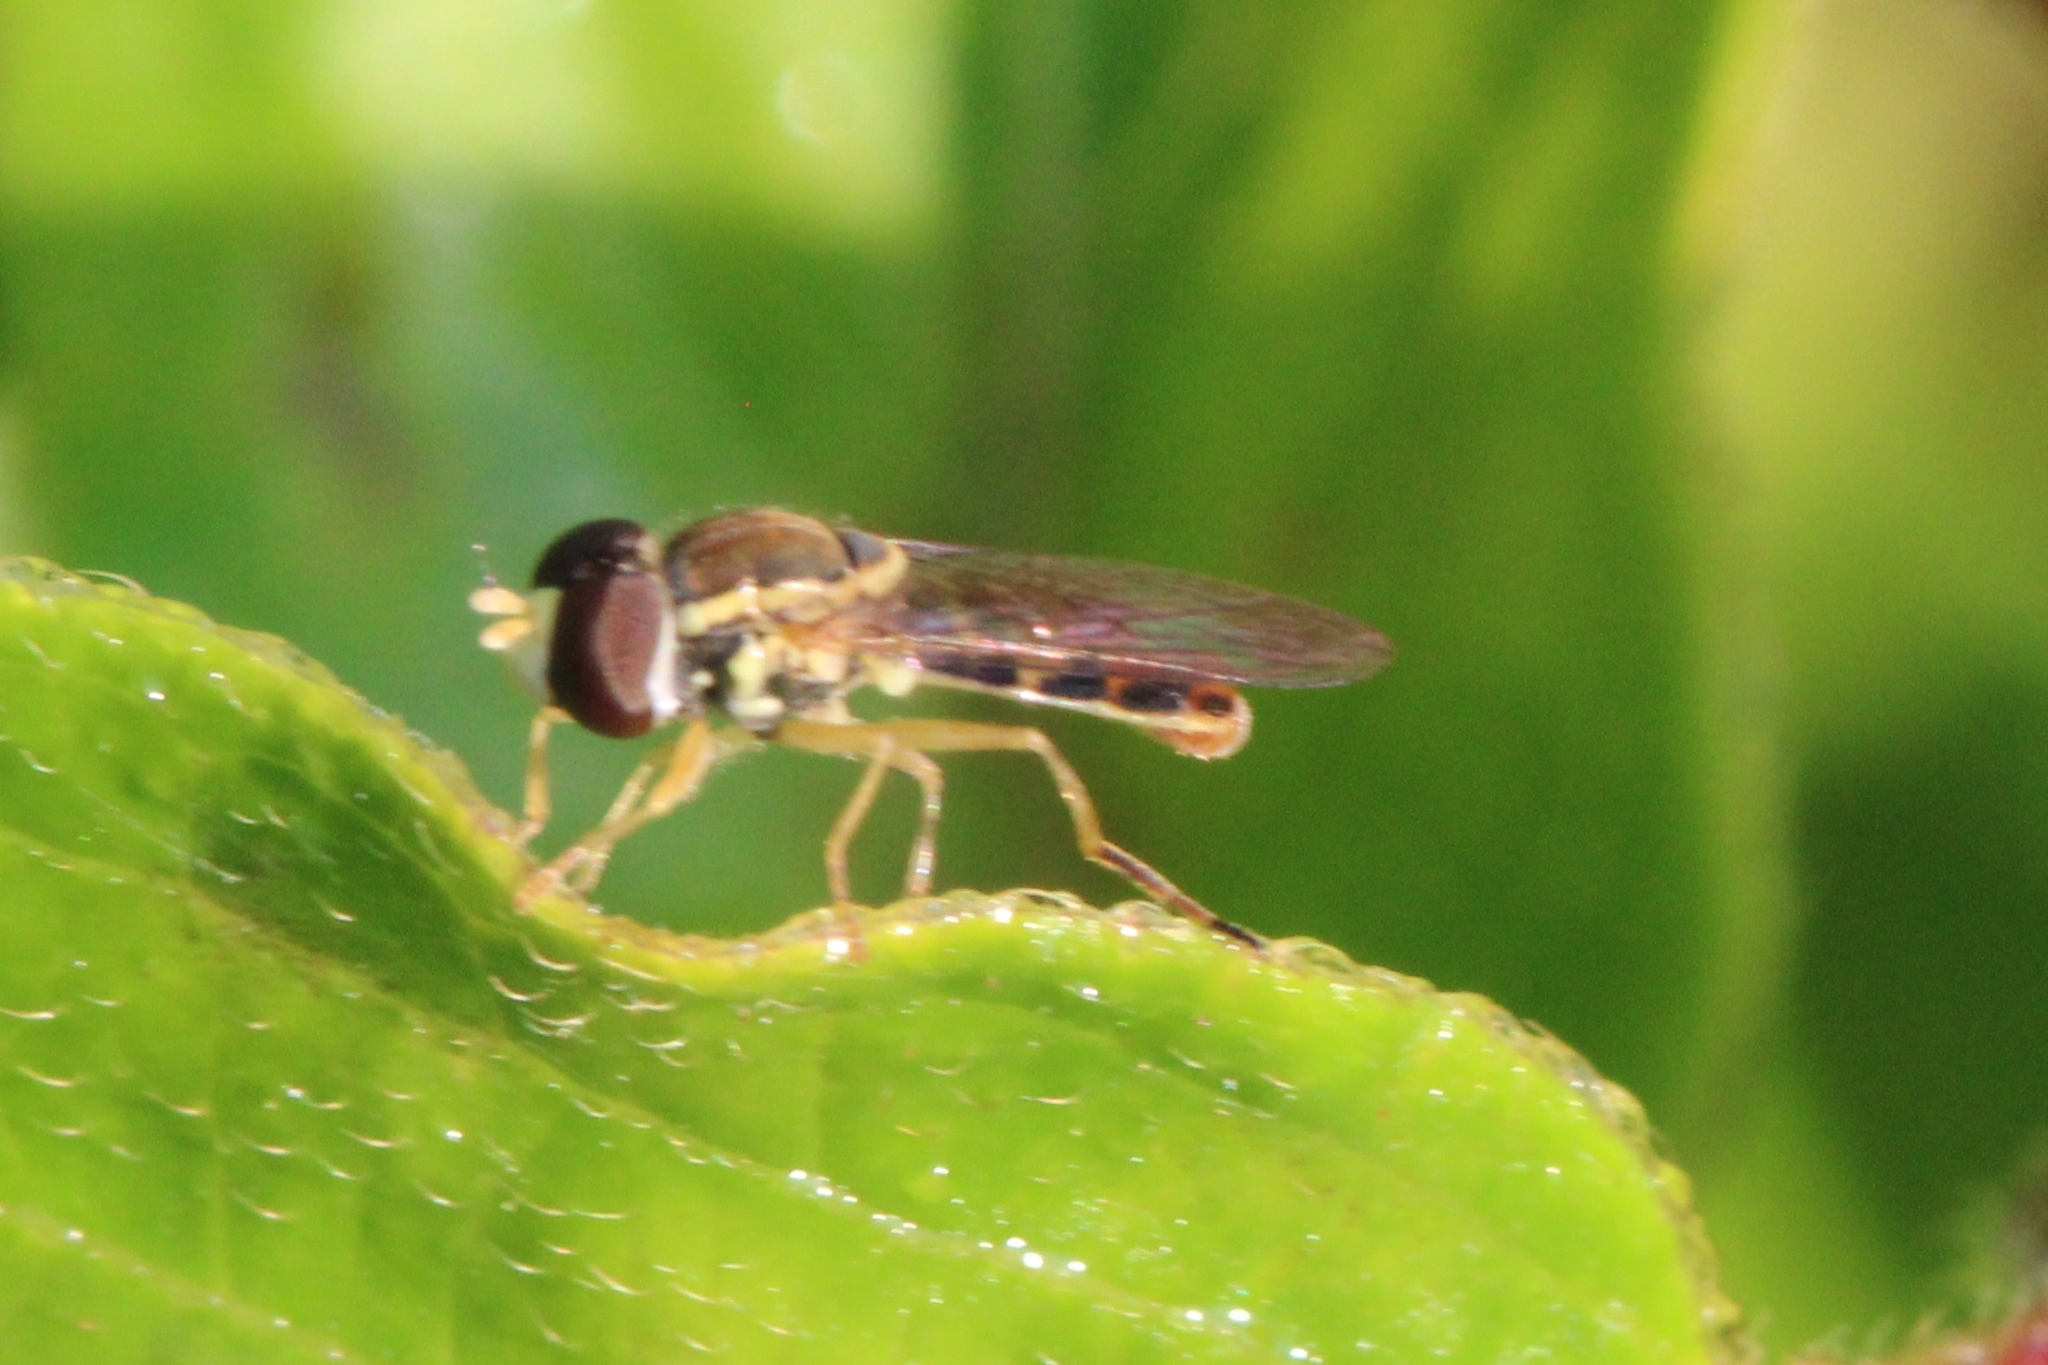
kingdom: Animalia
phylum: Arthropoda
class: Insecta
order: Diptera
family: Syrphidae
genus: Toxomerus
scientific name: Toxomerus marginatus
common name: Syrphid fly
